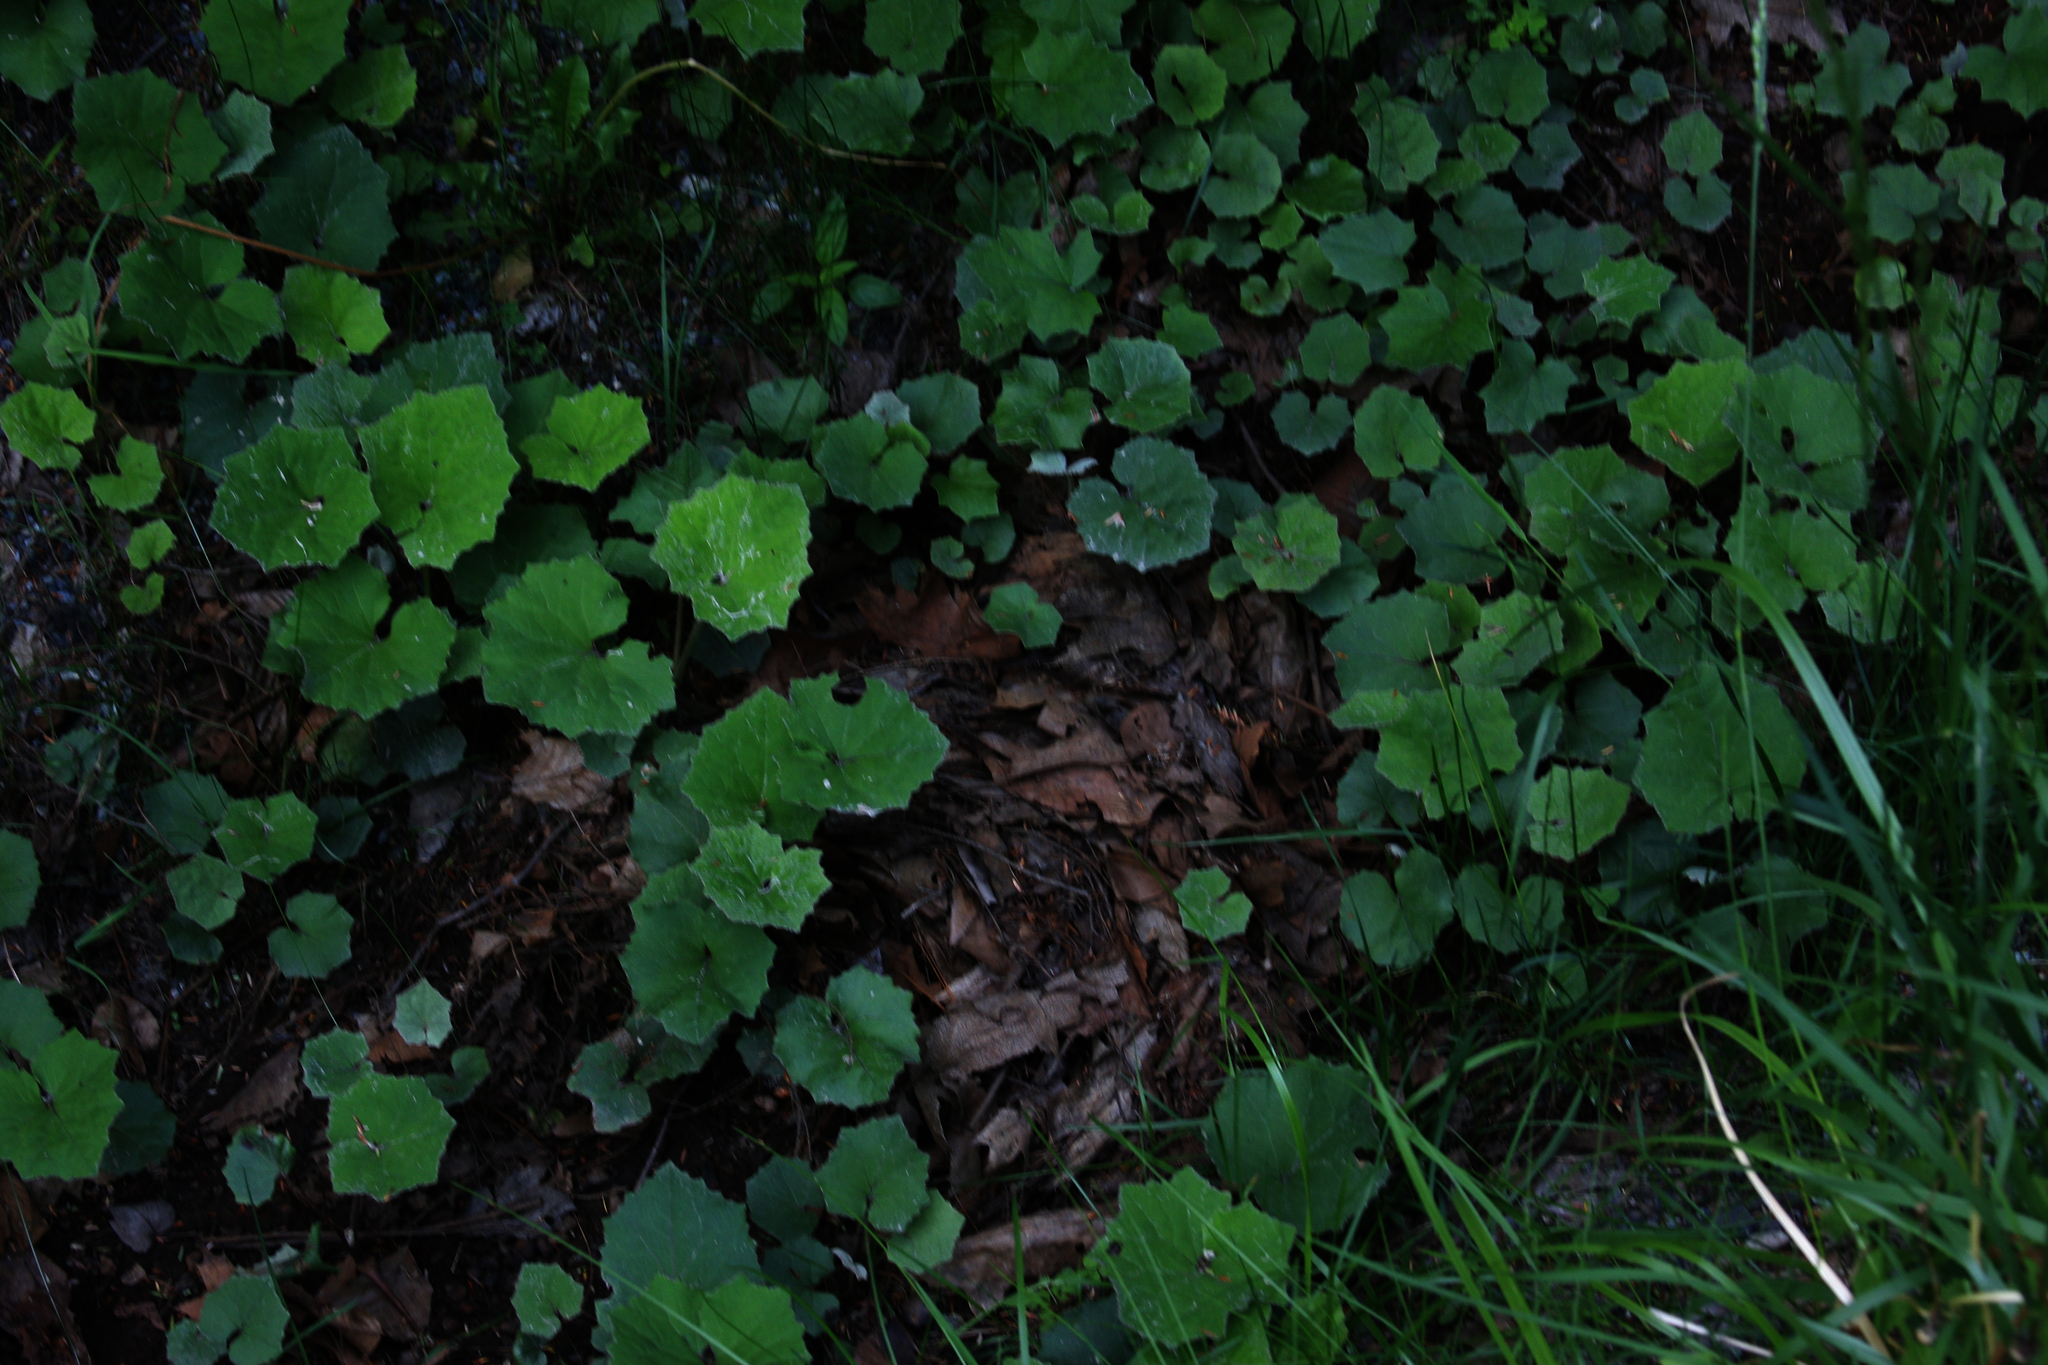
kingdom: Plantae
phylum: Tracheophyta
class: Magnoliopsida
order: Asterales
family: Asteraceae
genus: Tussilago
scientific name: Tussilago farfara
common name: Coltsfoot
